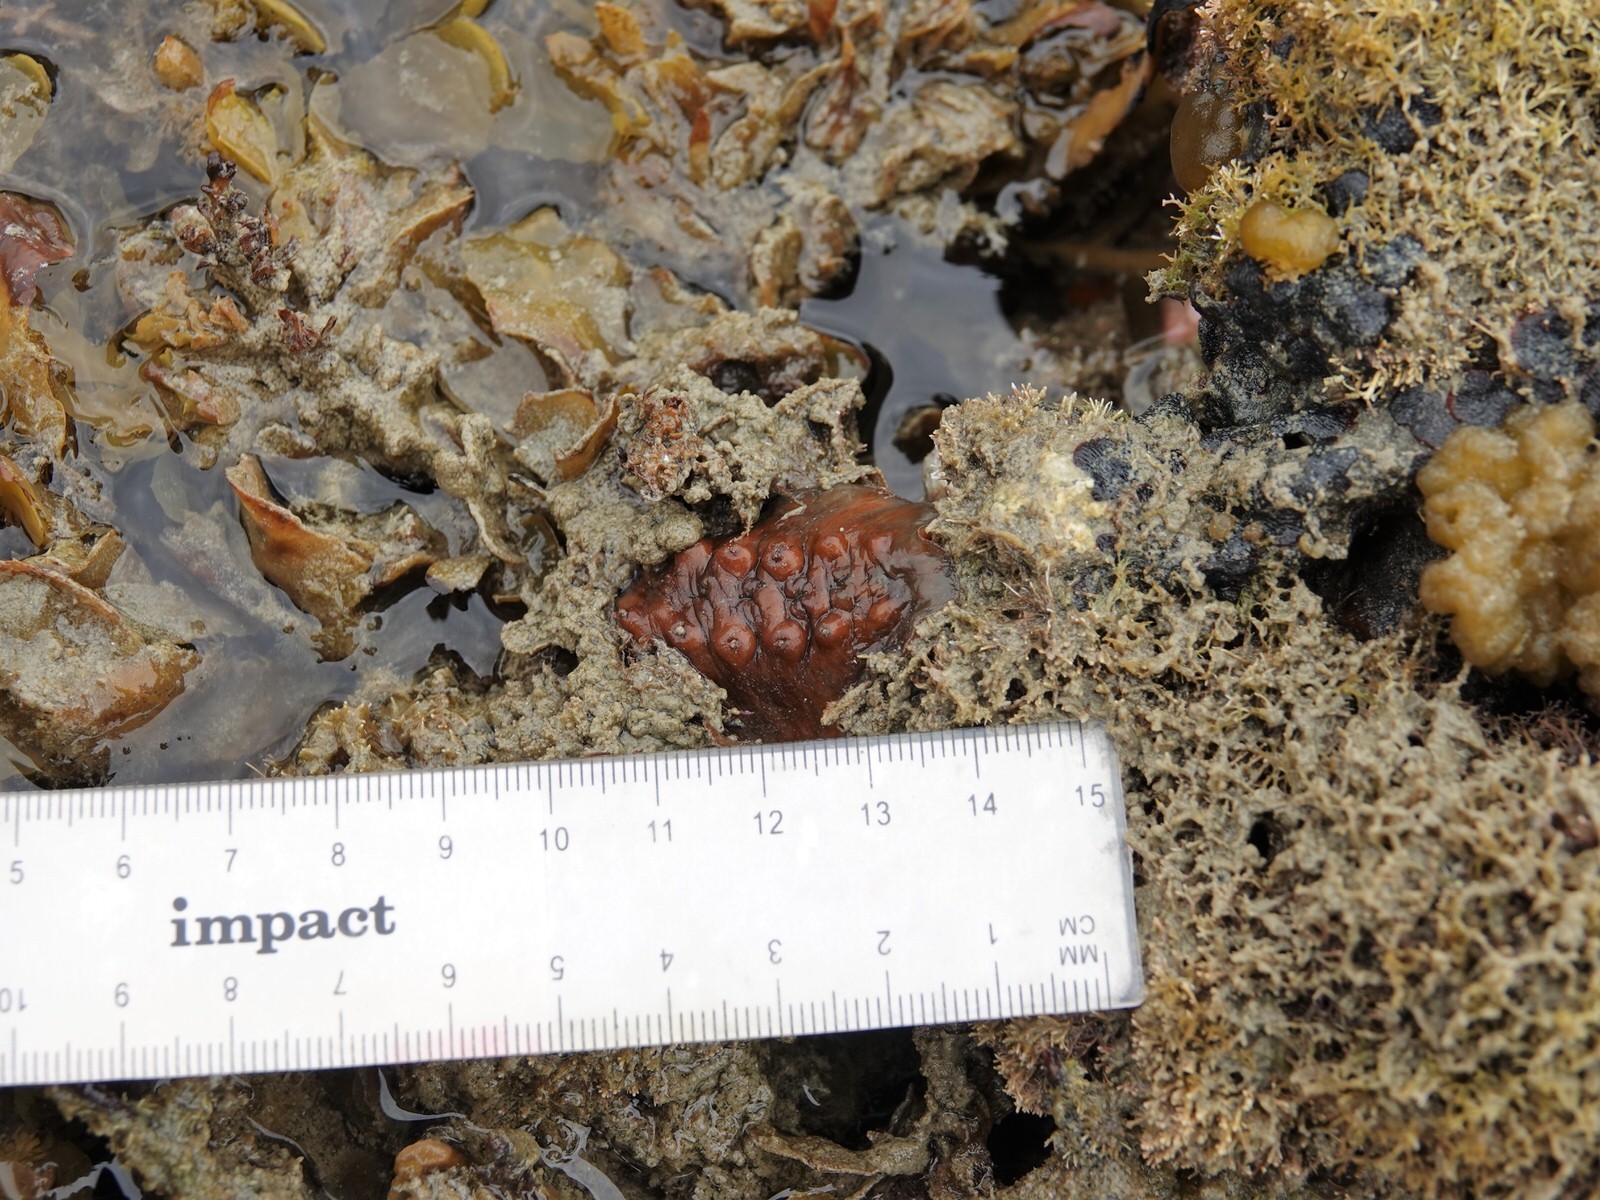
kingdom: Animalia
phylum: Mollusca
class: Polyplacophora
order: Chitonida
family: Acanthochitonidae
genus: Cryptoconchus
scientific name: Cryptoconchus porosus
